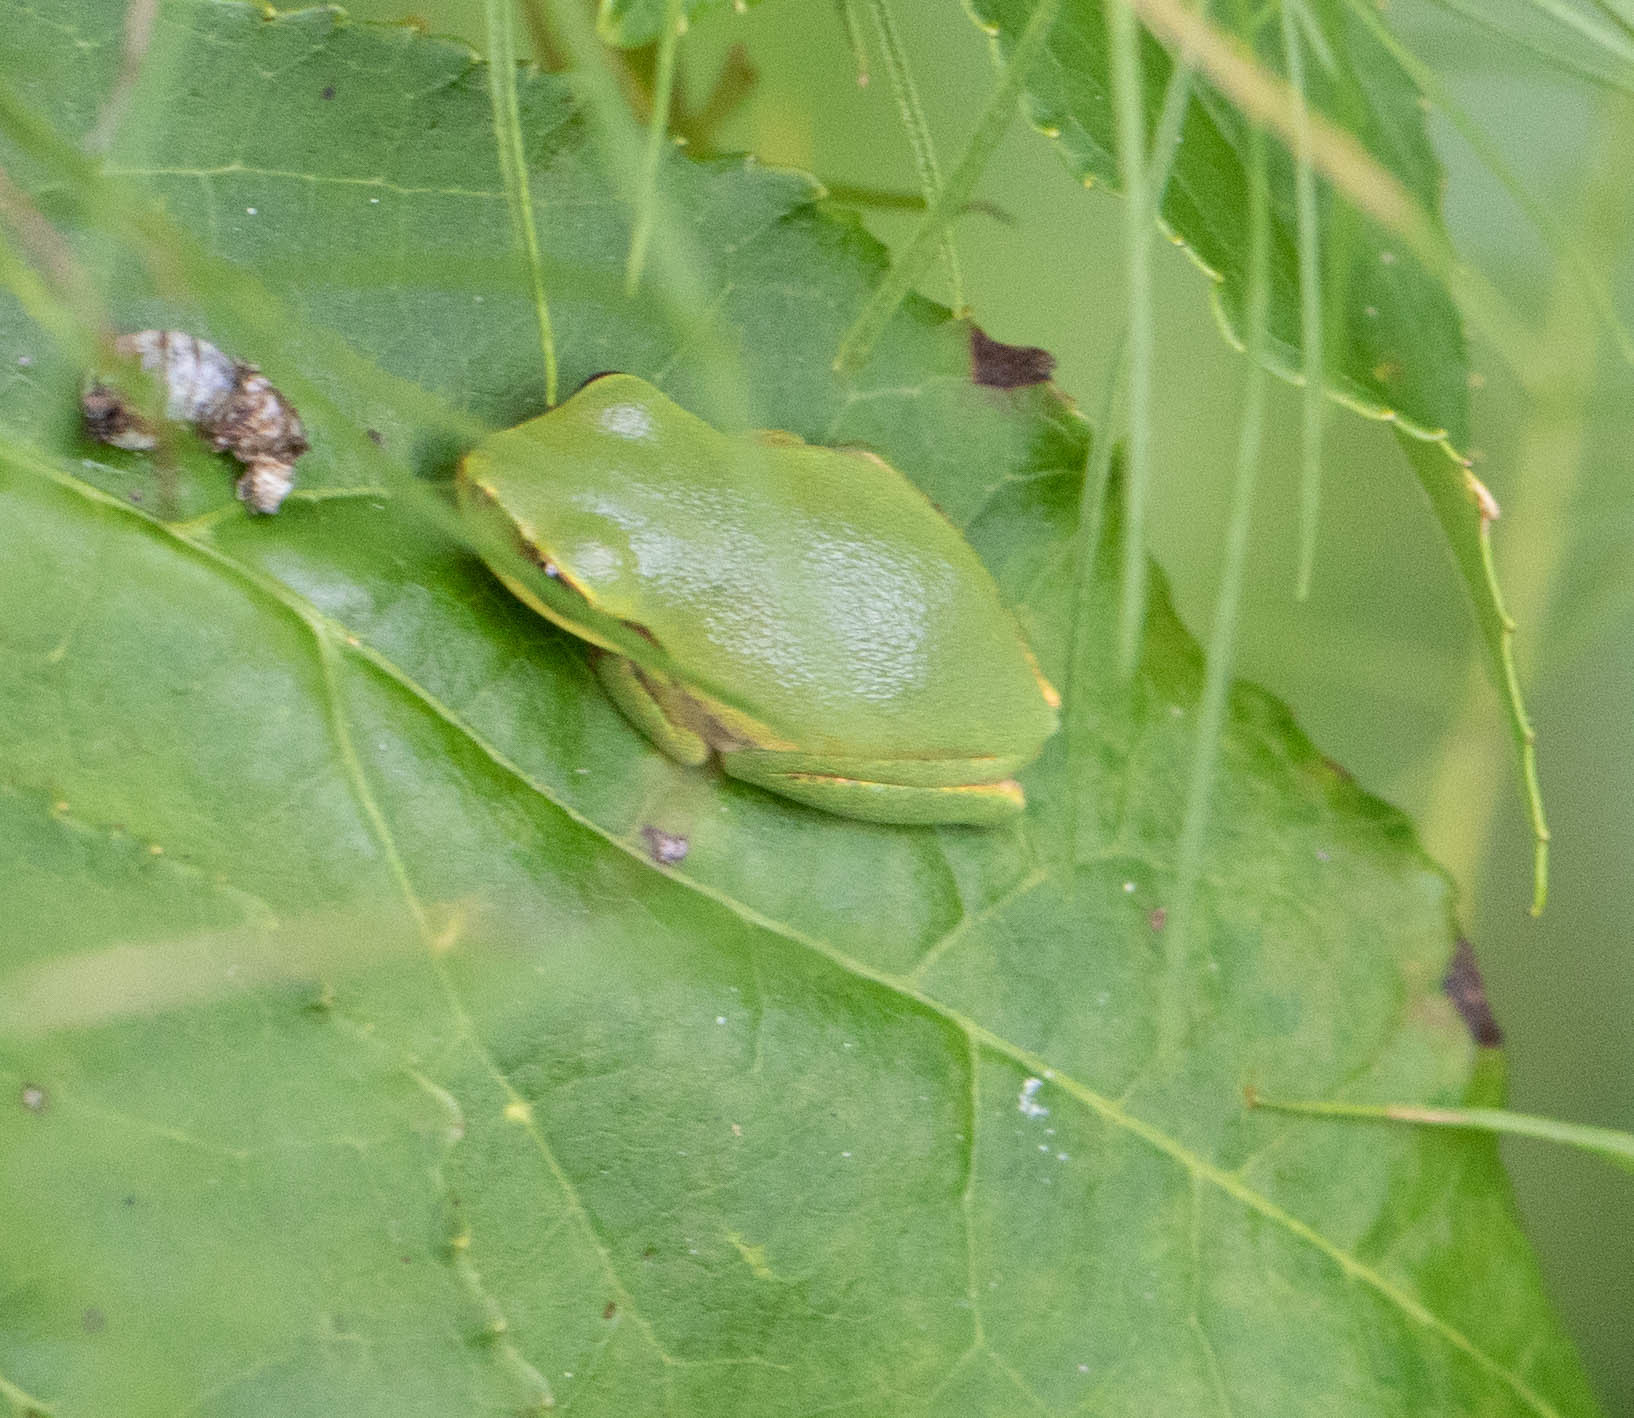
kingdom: Animalia
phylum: Chordata
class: Amphibia
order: Anura
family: Hylidae
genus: Dryophytes
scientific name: Dryophytes squirellus
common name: Squirrel treefrog
